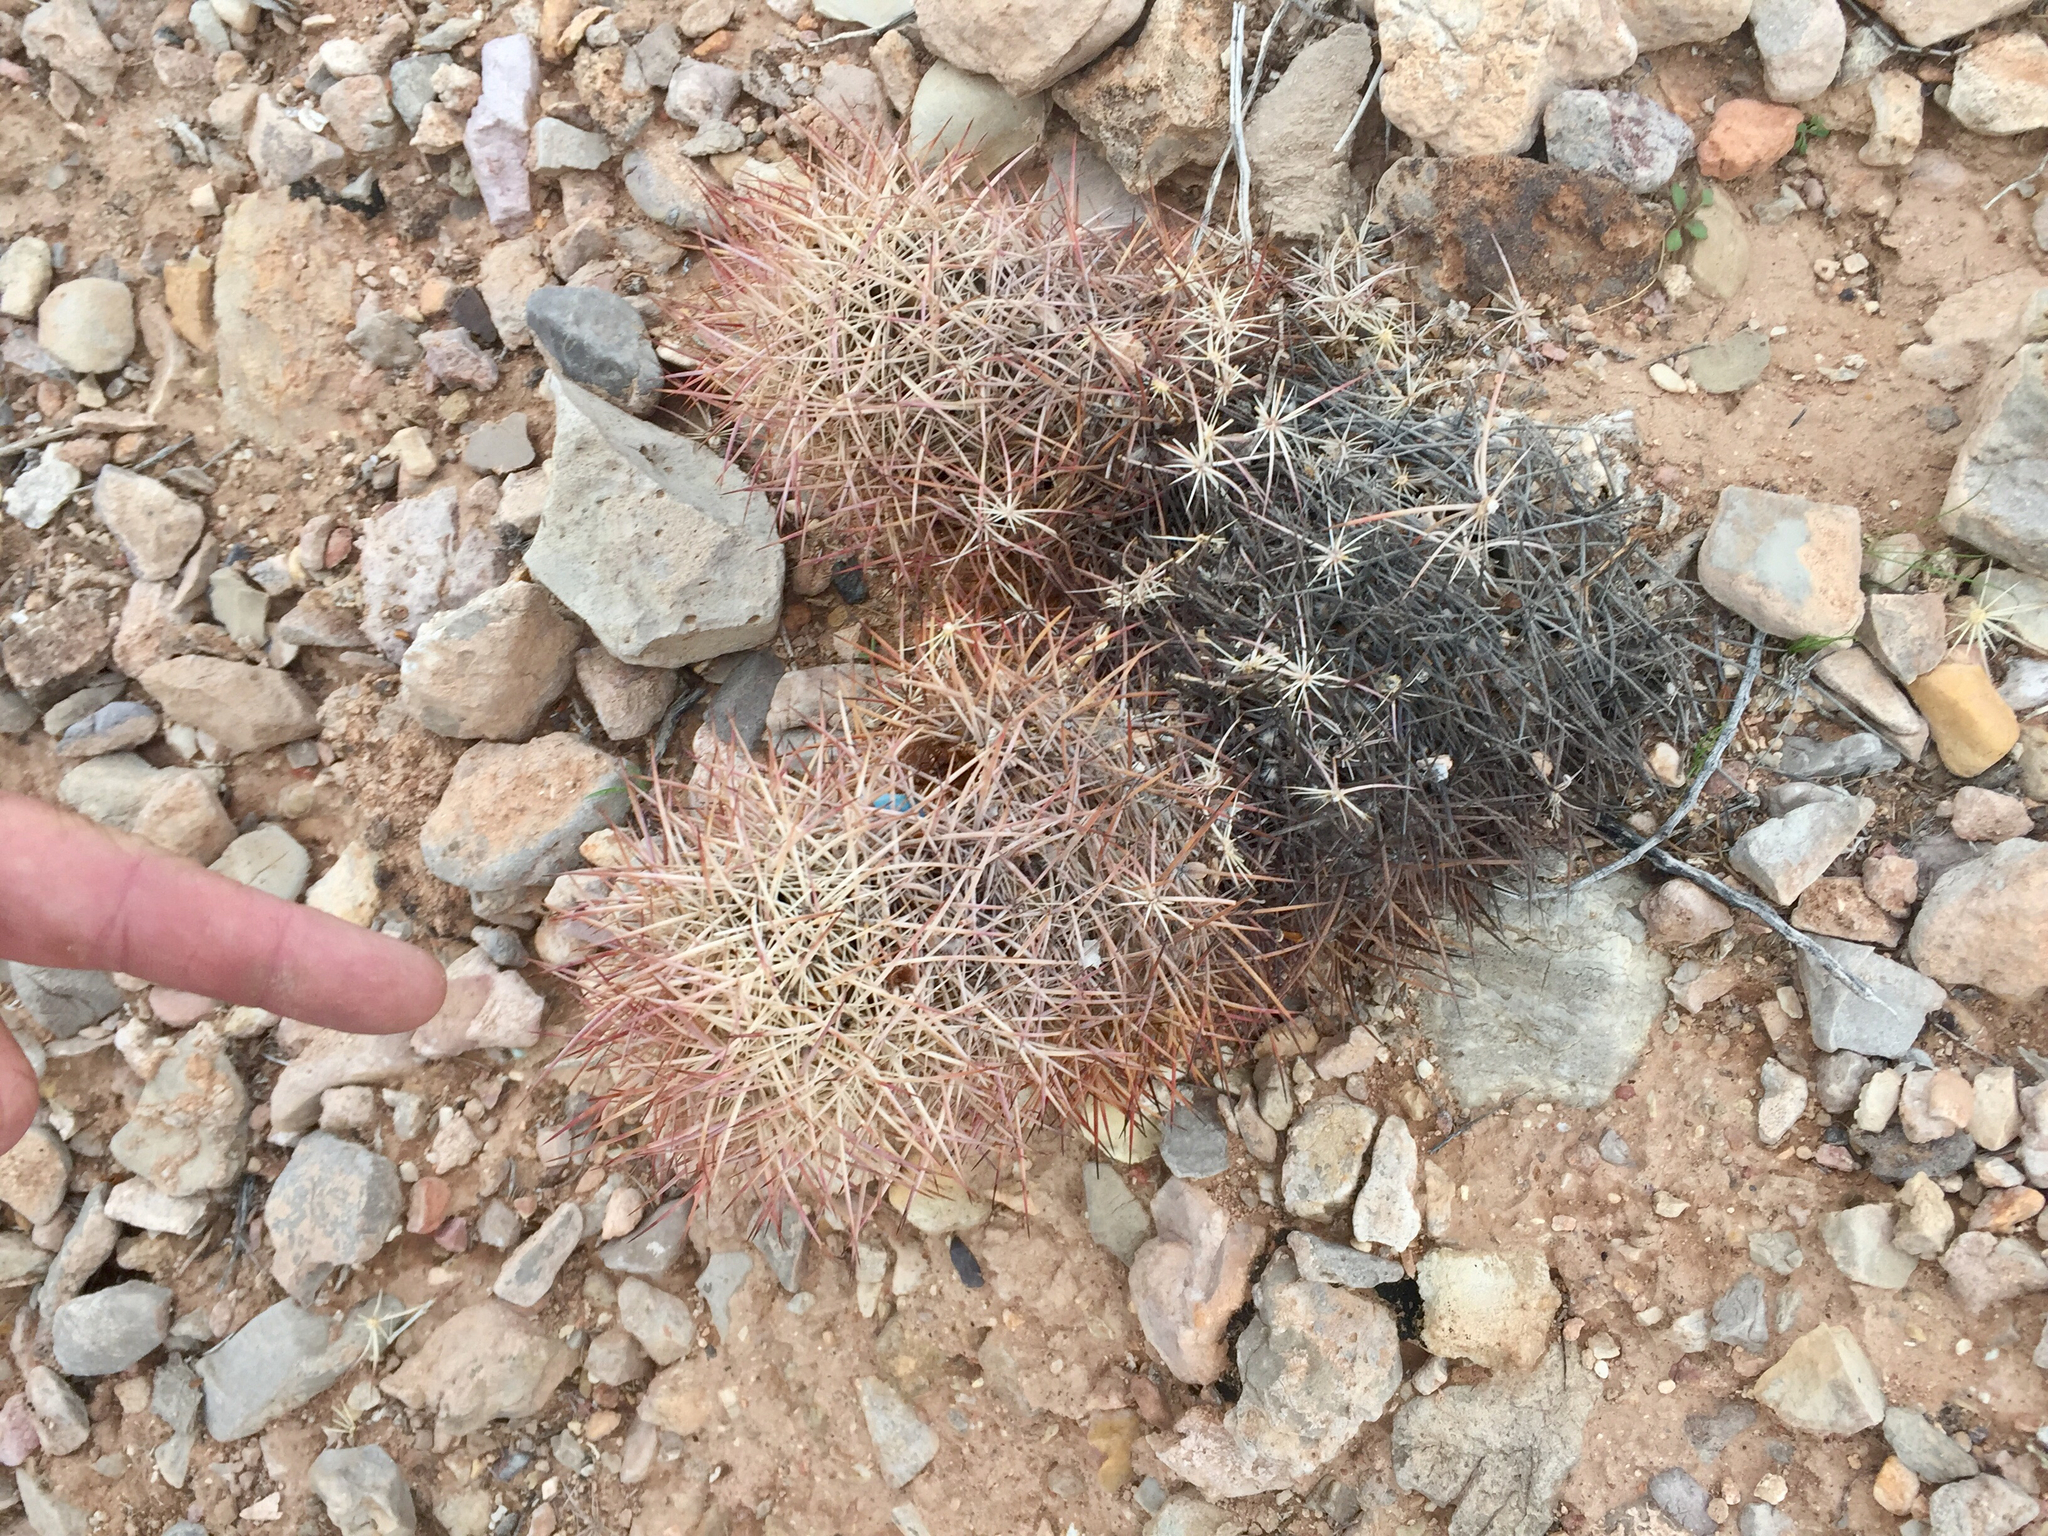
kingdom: Plantae
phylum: Tracheophyta
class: Magnoliopsida
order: Caryophyllales
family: Cactaceae
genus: Sclerocactus
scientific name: Sclerocactus johnsonii
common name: Eight-spine fishhook cactus
